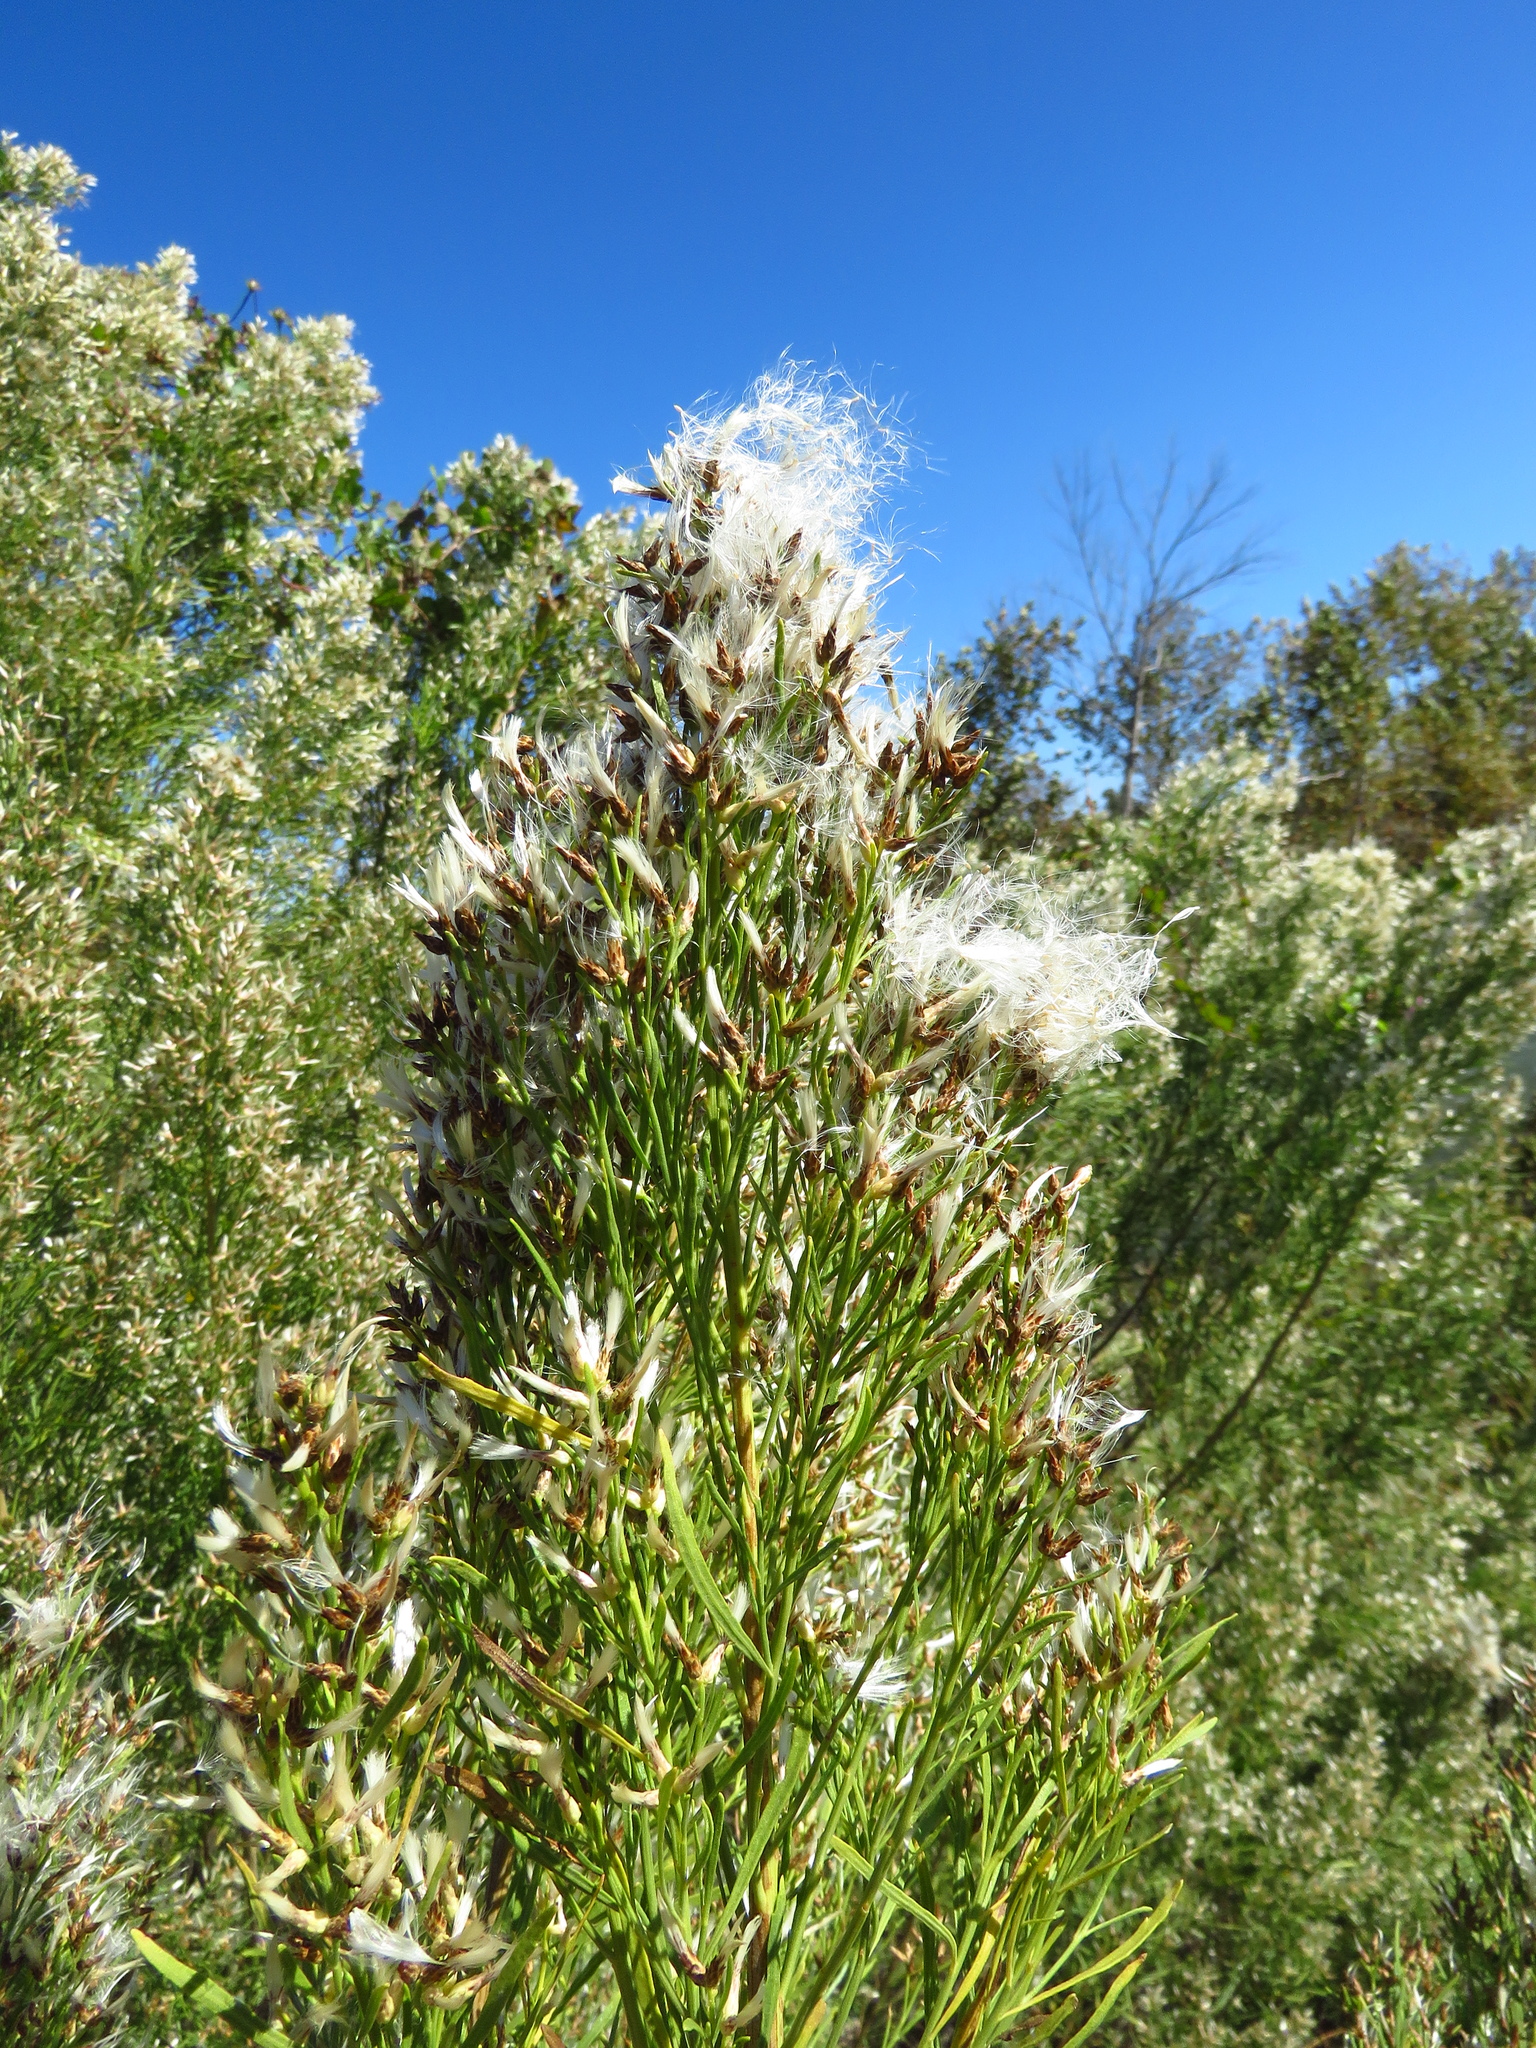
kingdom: Plantae
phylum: Tracheophyta
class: Magnoliopsida
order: Asterales
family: Asteraceae
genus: Baccharis
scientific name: Baccharis neglecta
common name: Roosevelt-weed
